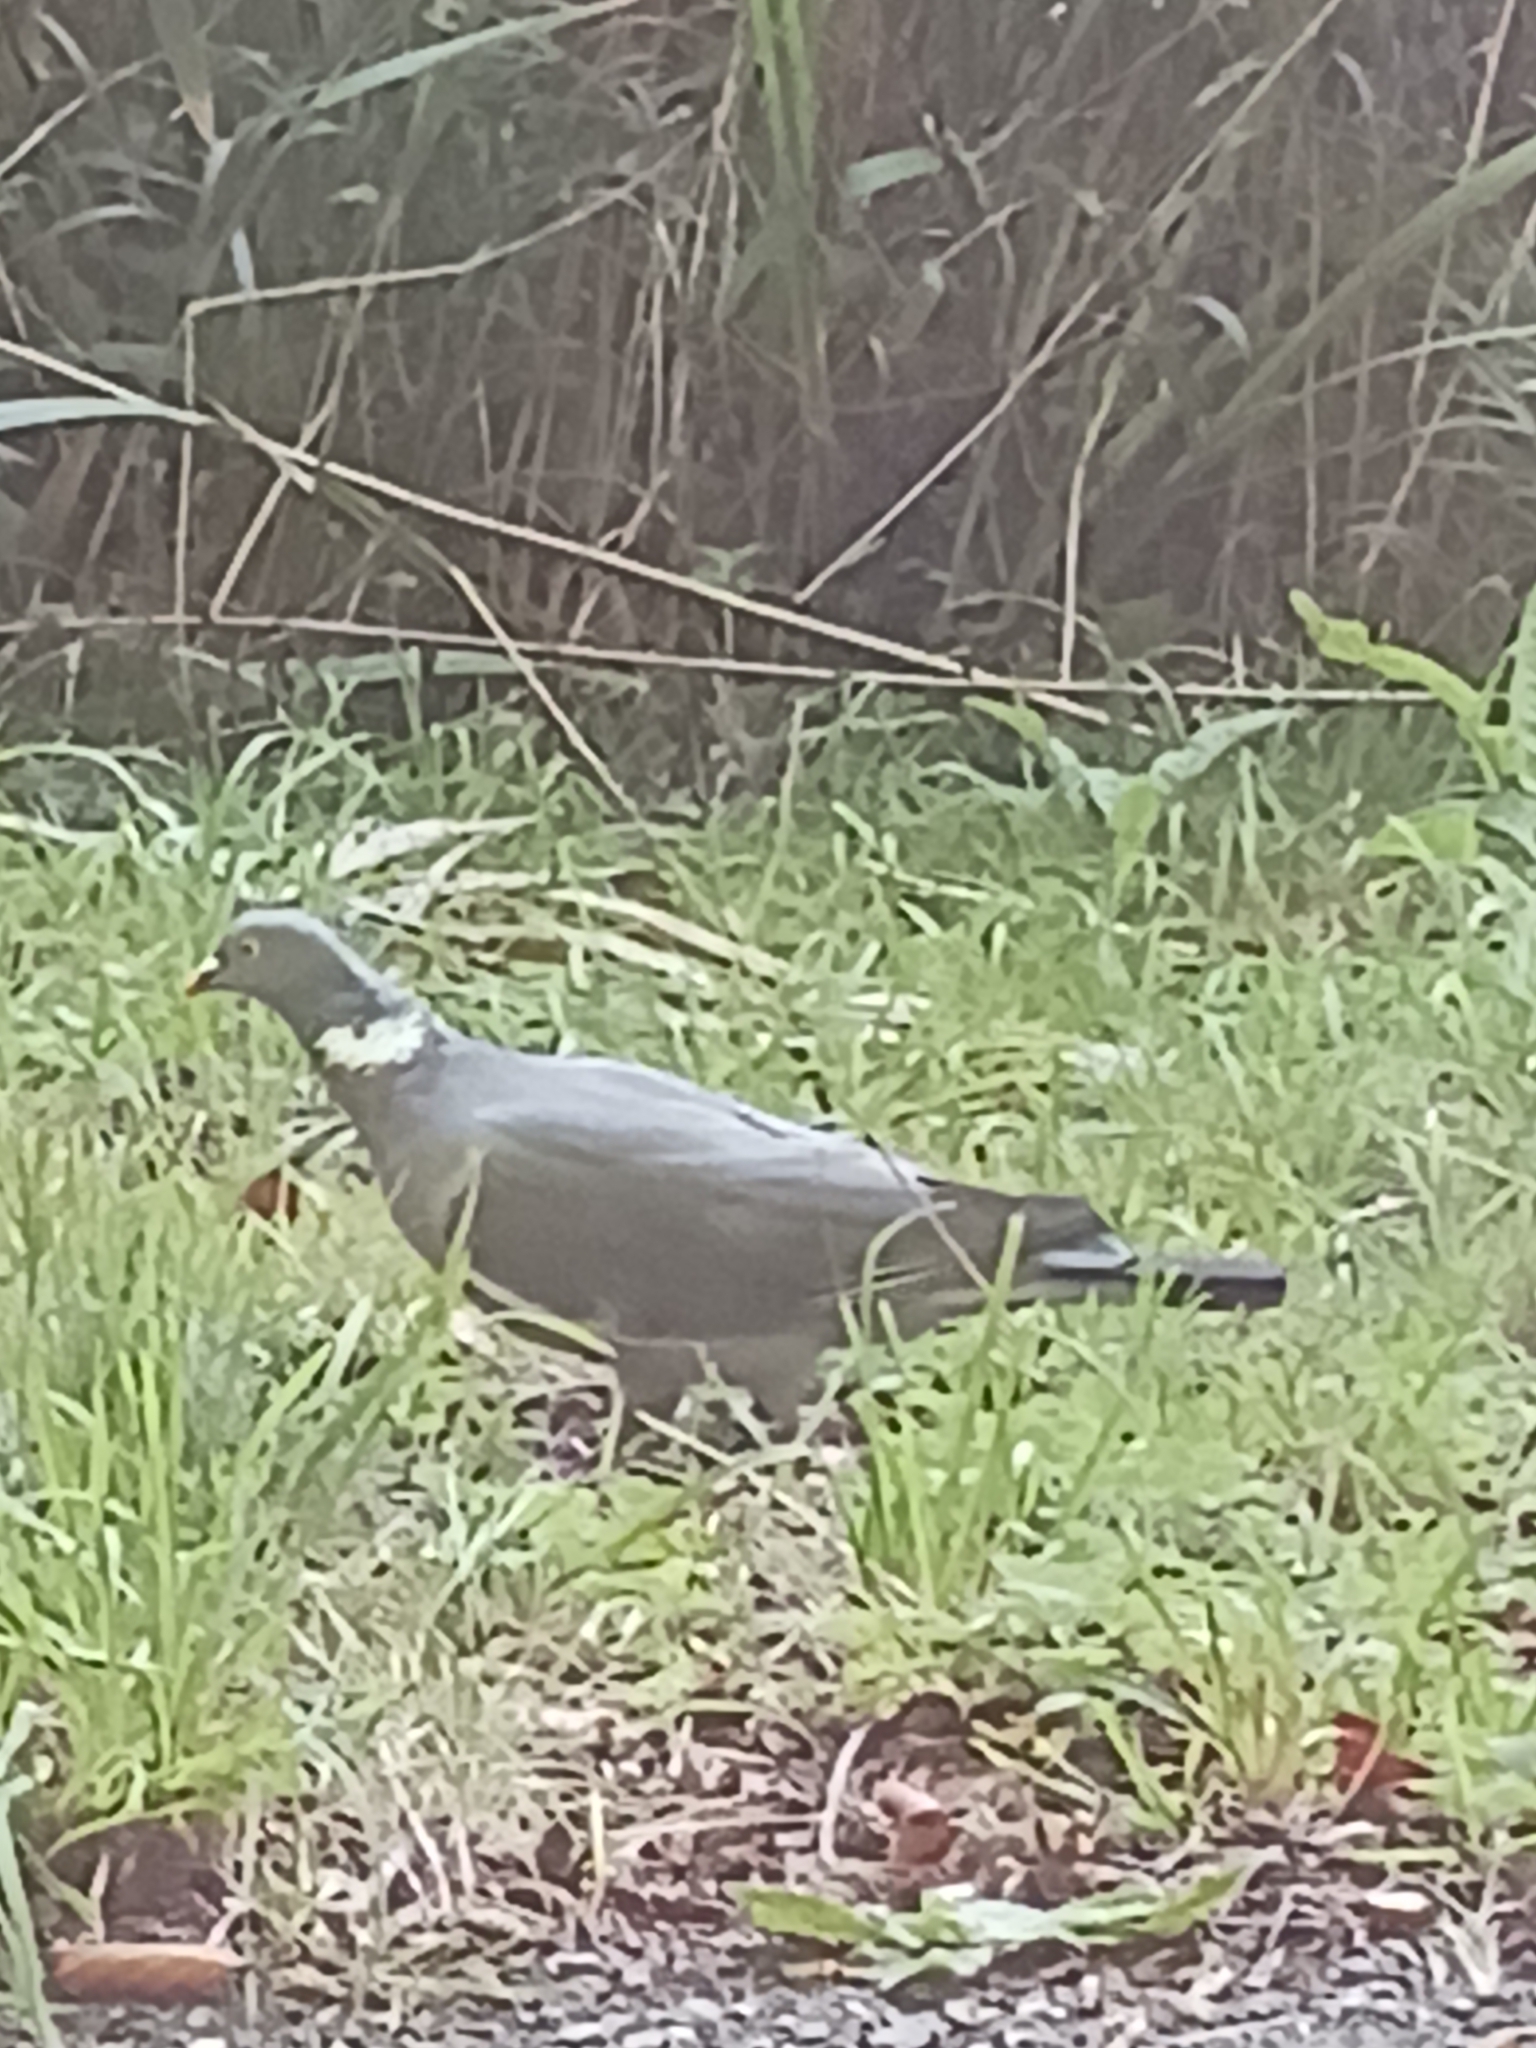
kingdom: Animalia
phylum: Chordata
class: Aves
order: Columbiformes
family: Columbidae
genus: Columba
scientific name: Columba palumbus
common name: Common wood pigeon
